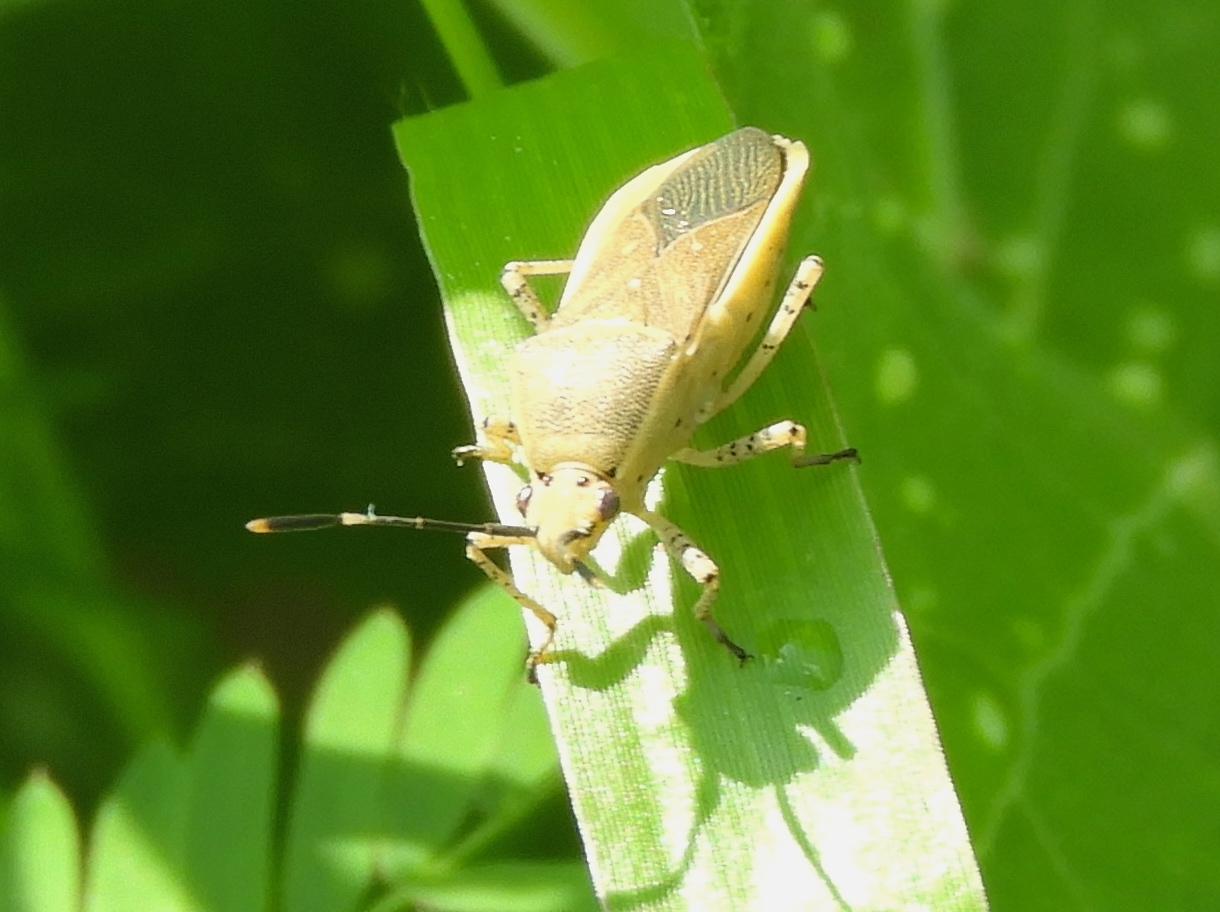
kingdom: Animalia
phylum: Arthropoda
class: Insecta
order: Hemiptera
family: Coreidae
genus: Catorhintha
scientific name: Catorhintha texana
